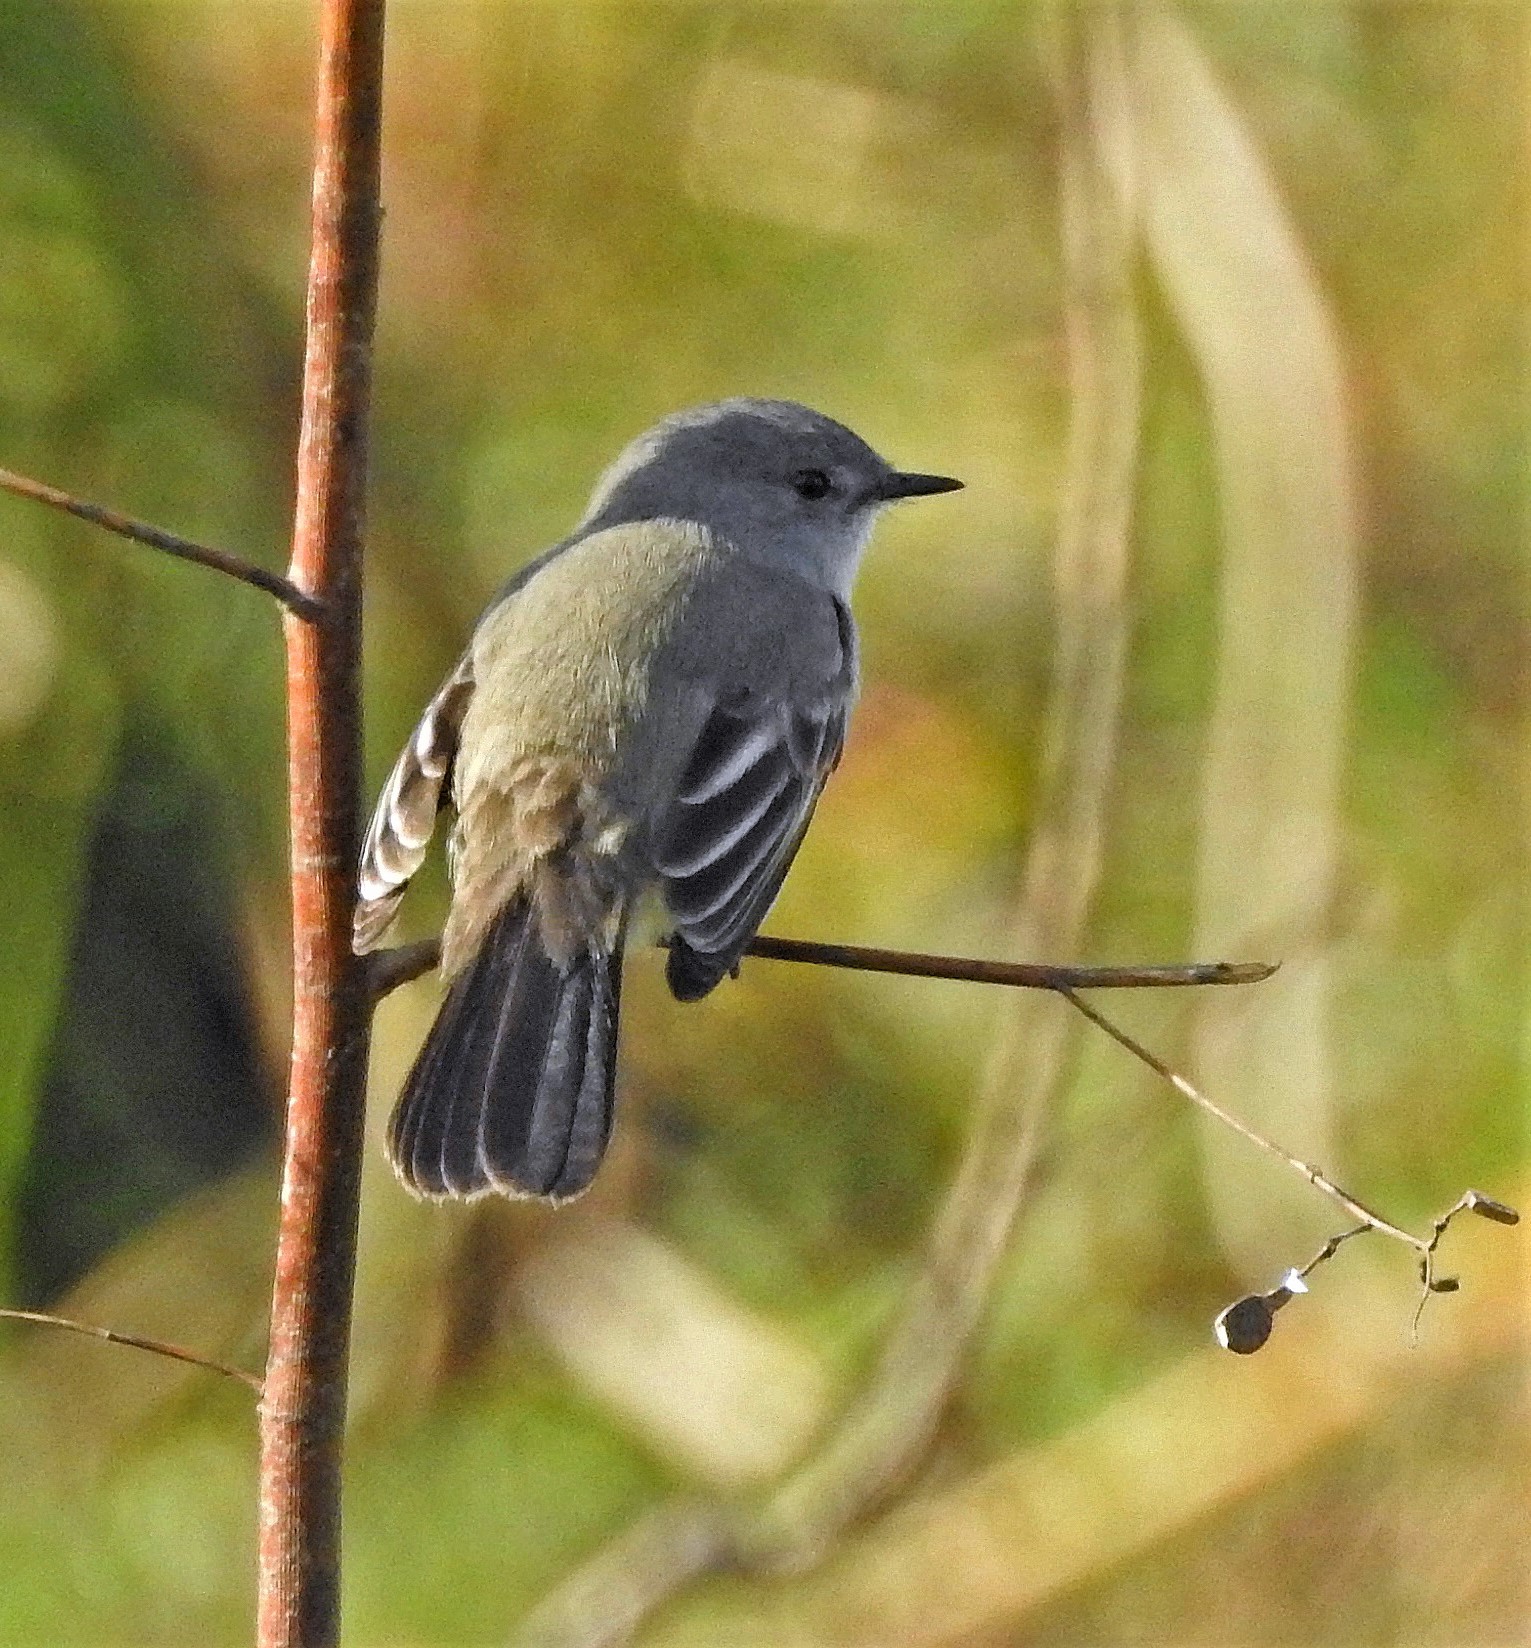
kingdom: Animalia
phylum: Chordata
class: Aves
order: Passeriformes
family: Tyrannidae
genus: Serpophaga
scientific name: Serpophaga nigricans
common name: Sooty tyrannulet
